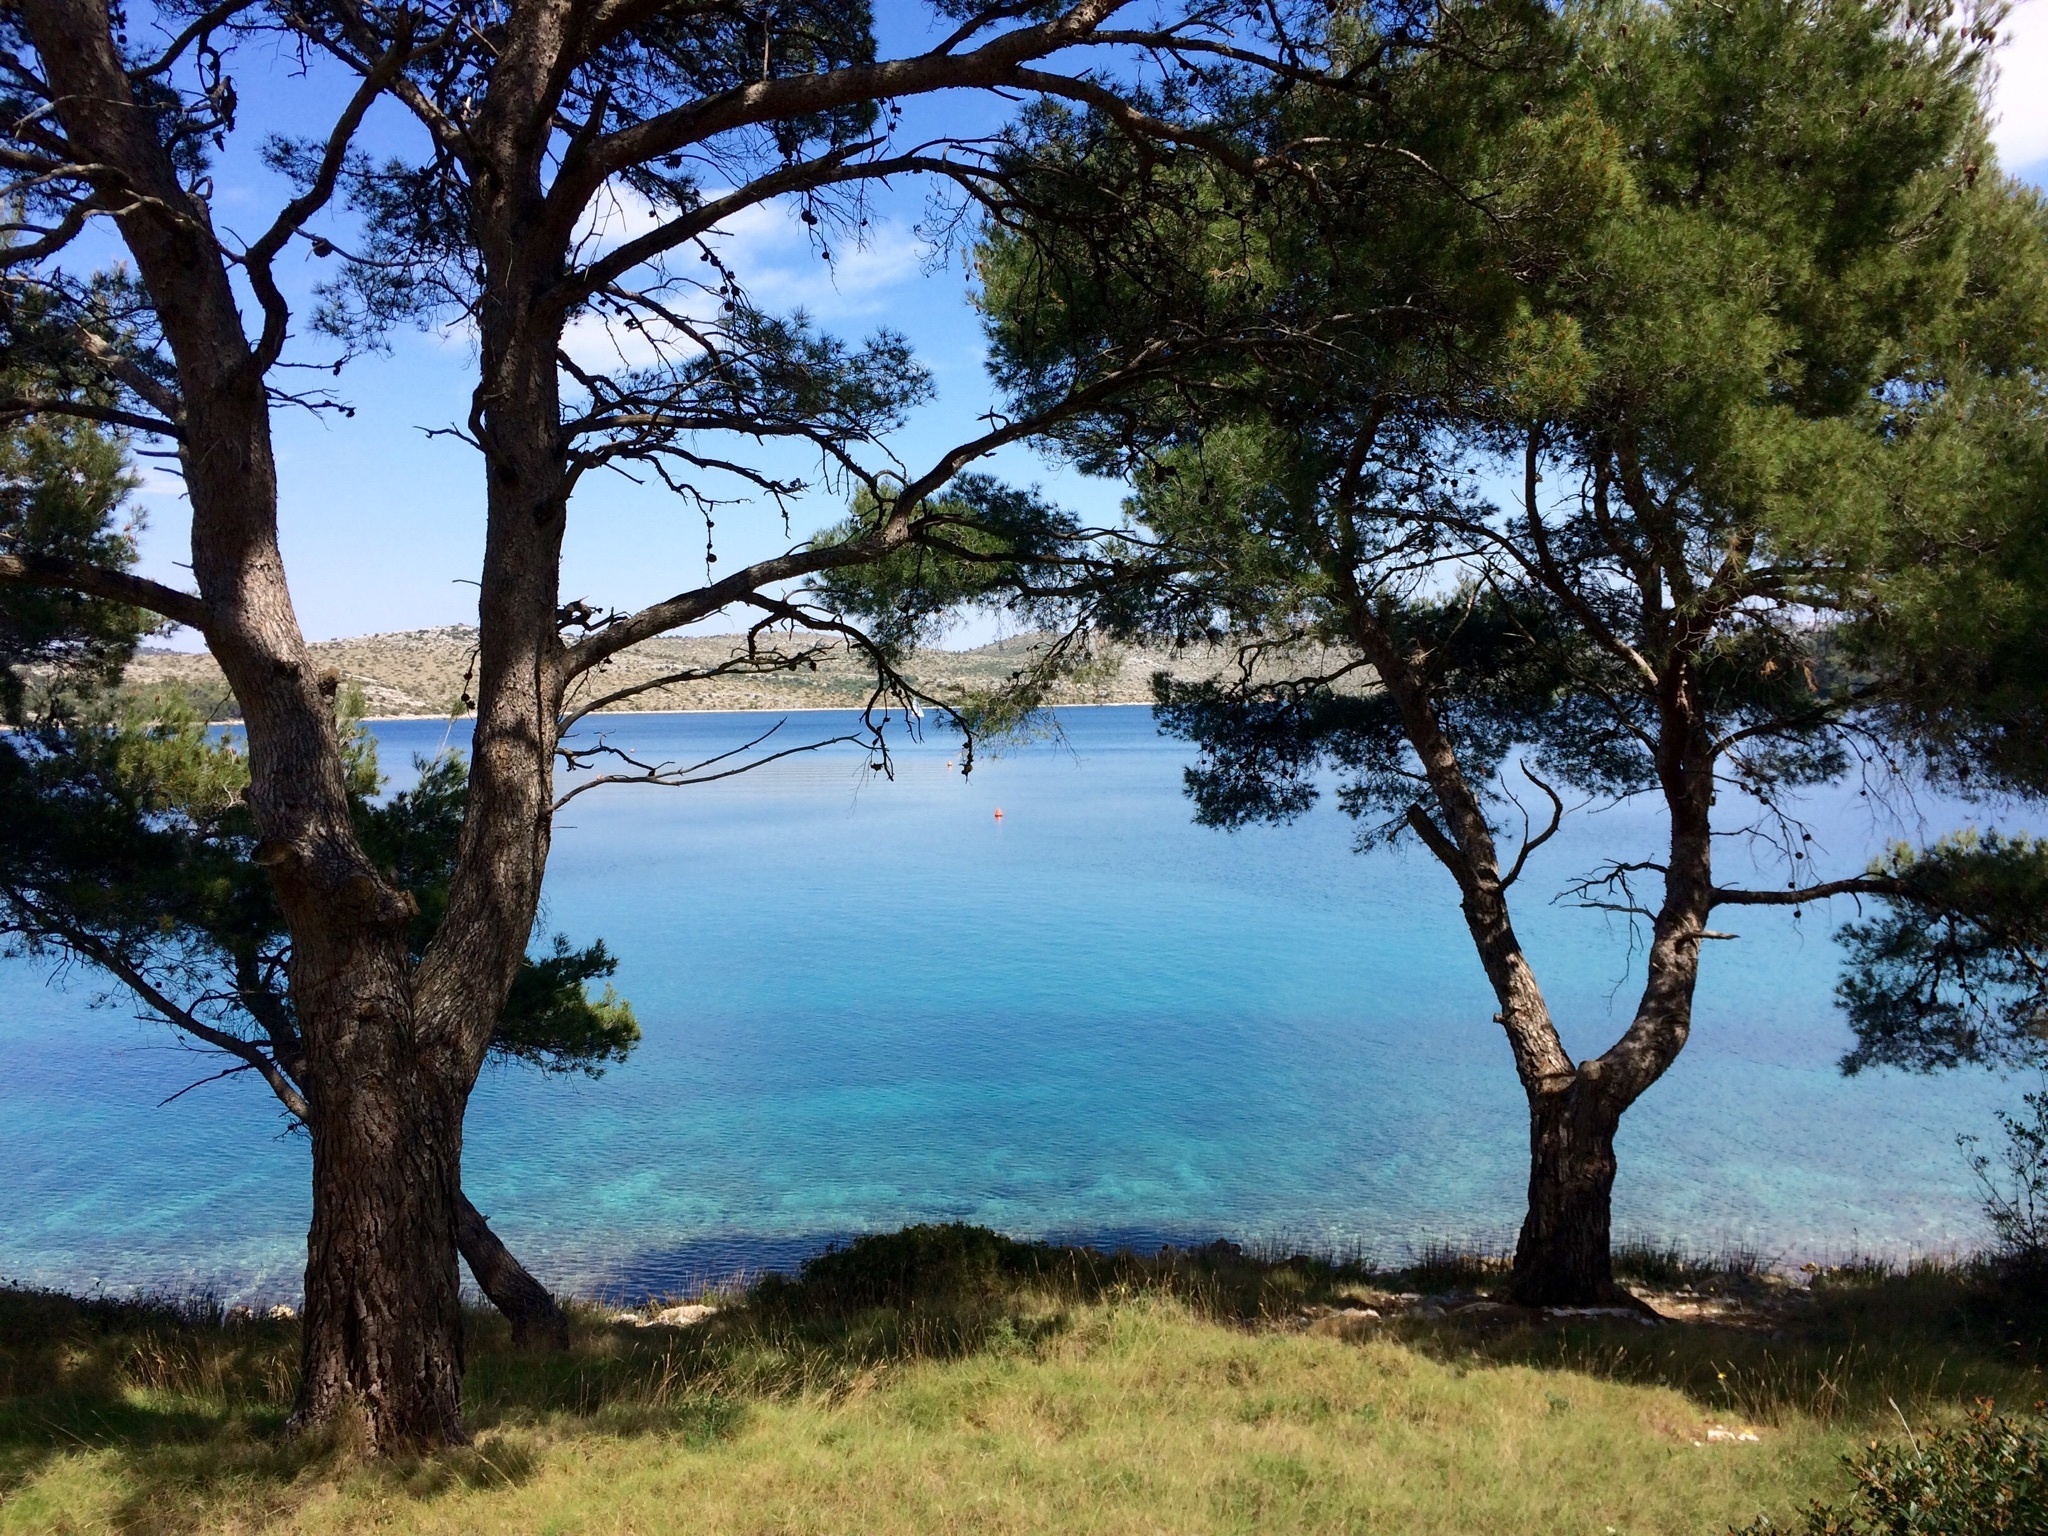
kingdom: Plantae
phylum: Tracheophyta
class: Pinopsida
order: Pinales
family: Pinaceae
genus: Pinus
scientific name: Pinus halepensis
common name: Aleppo pine
